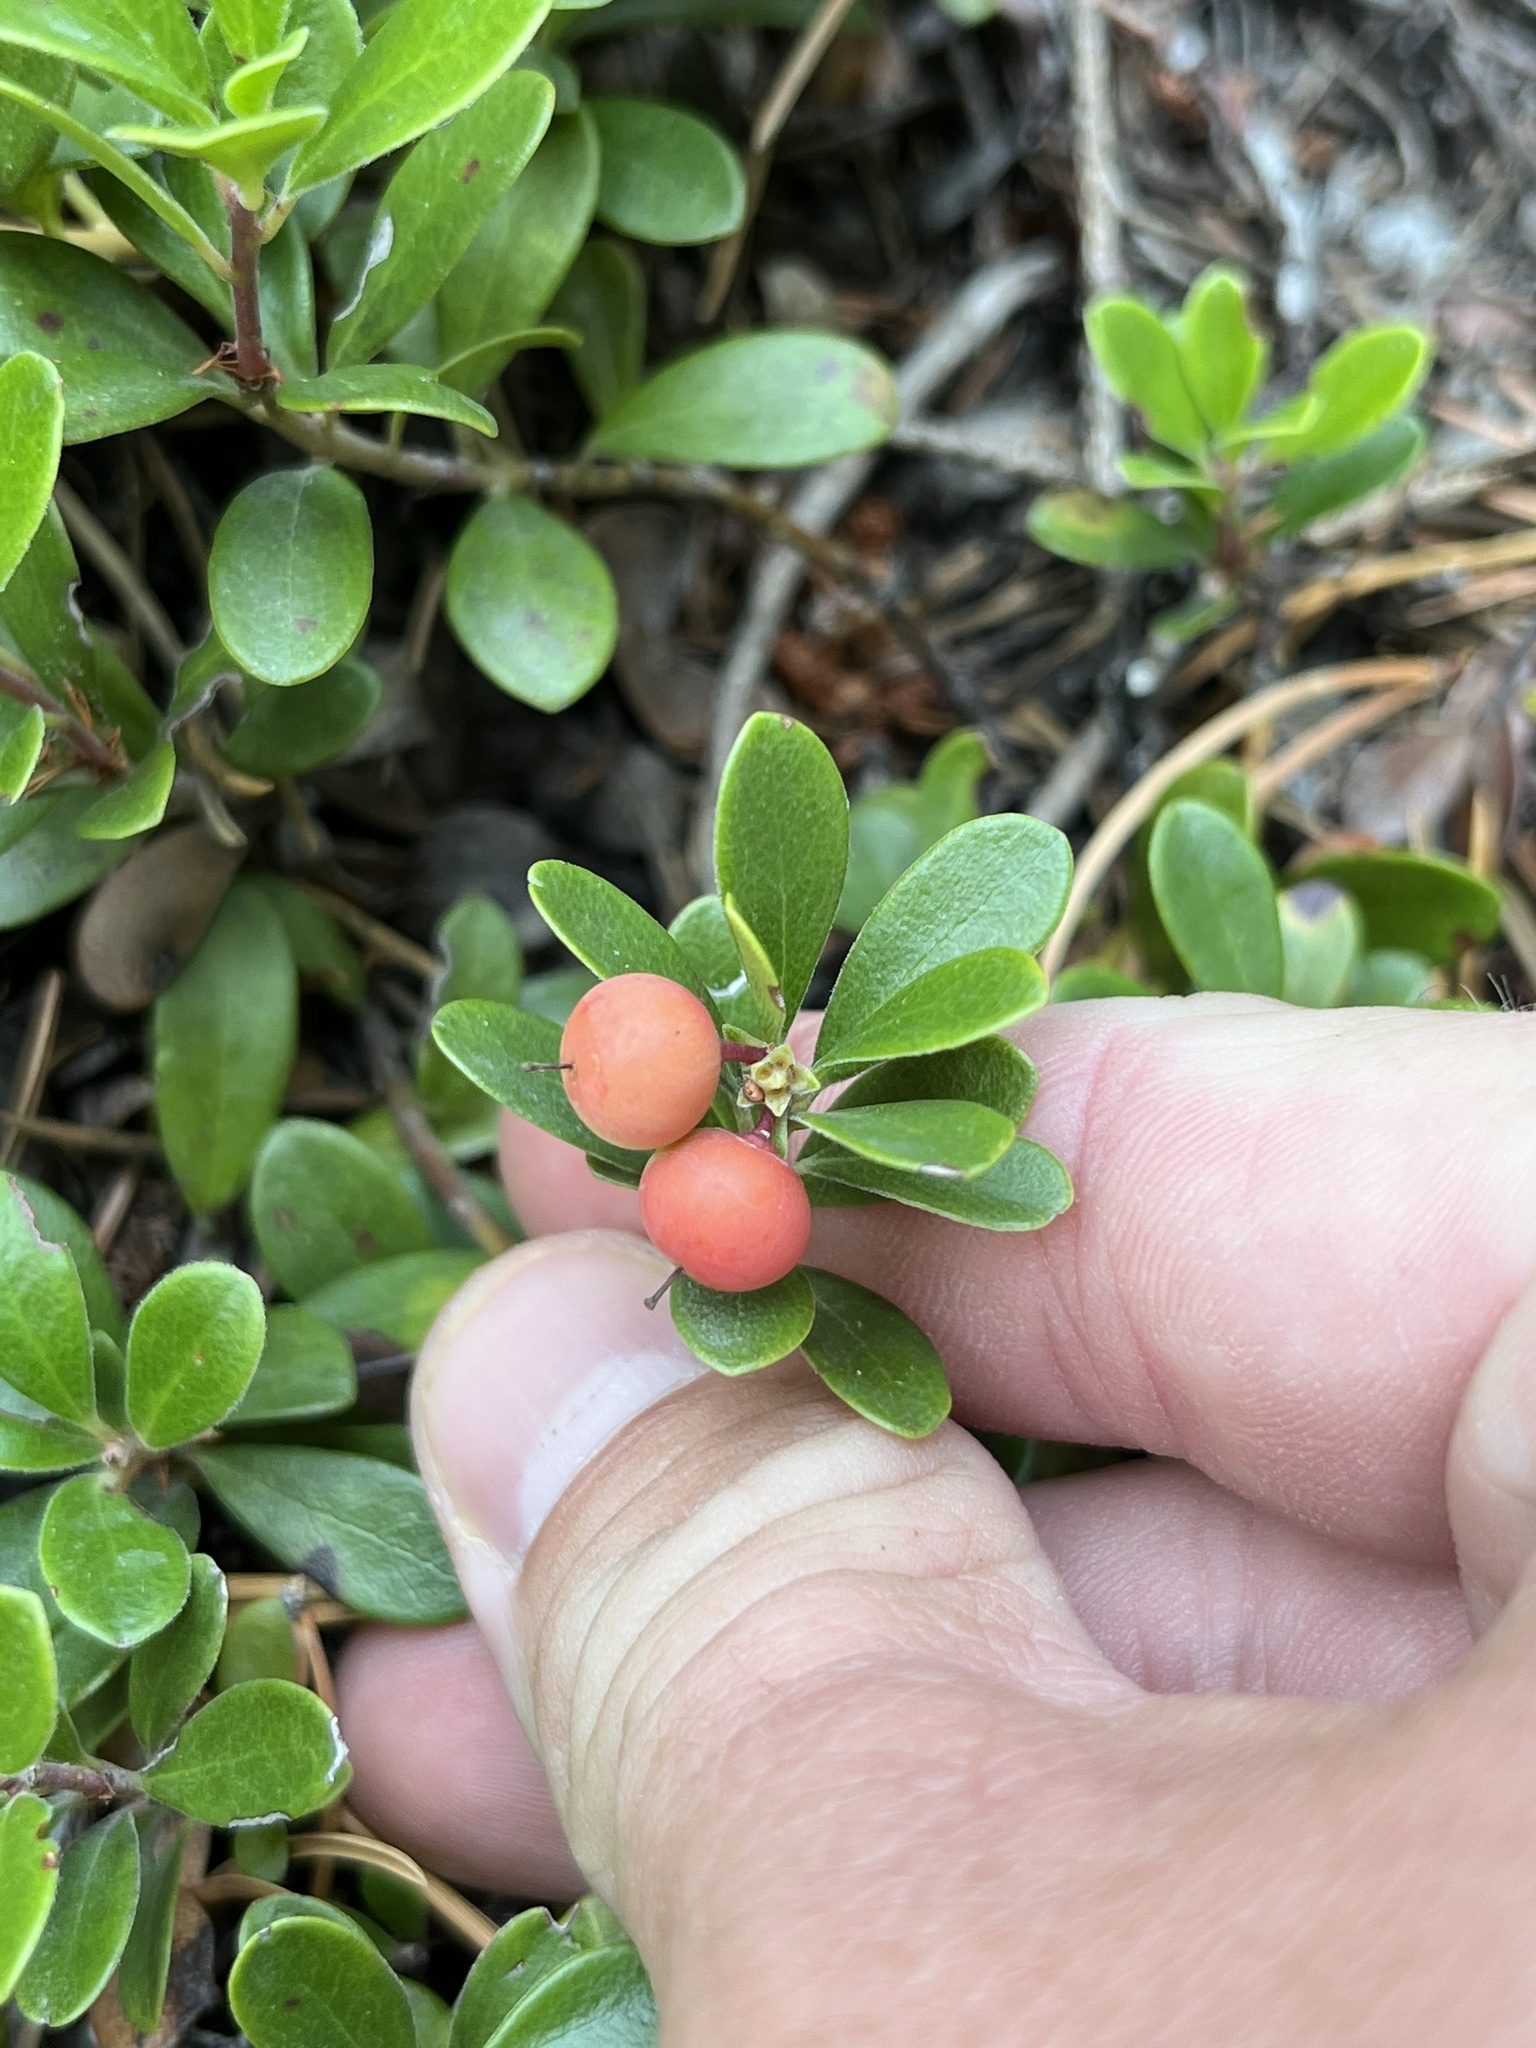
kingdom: Plantae
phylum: Tracheophyta
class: Magnoliopsida
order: Ericales
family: Ericaceae
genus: Arctostaphylos
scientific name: Arctostaphylos uva-ursi
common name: Bearberry
